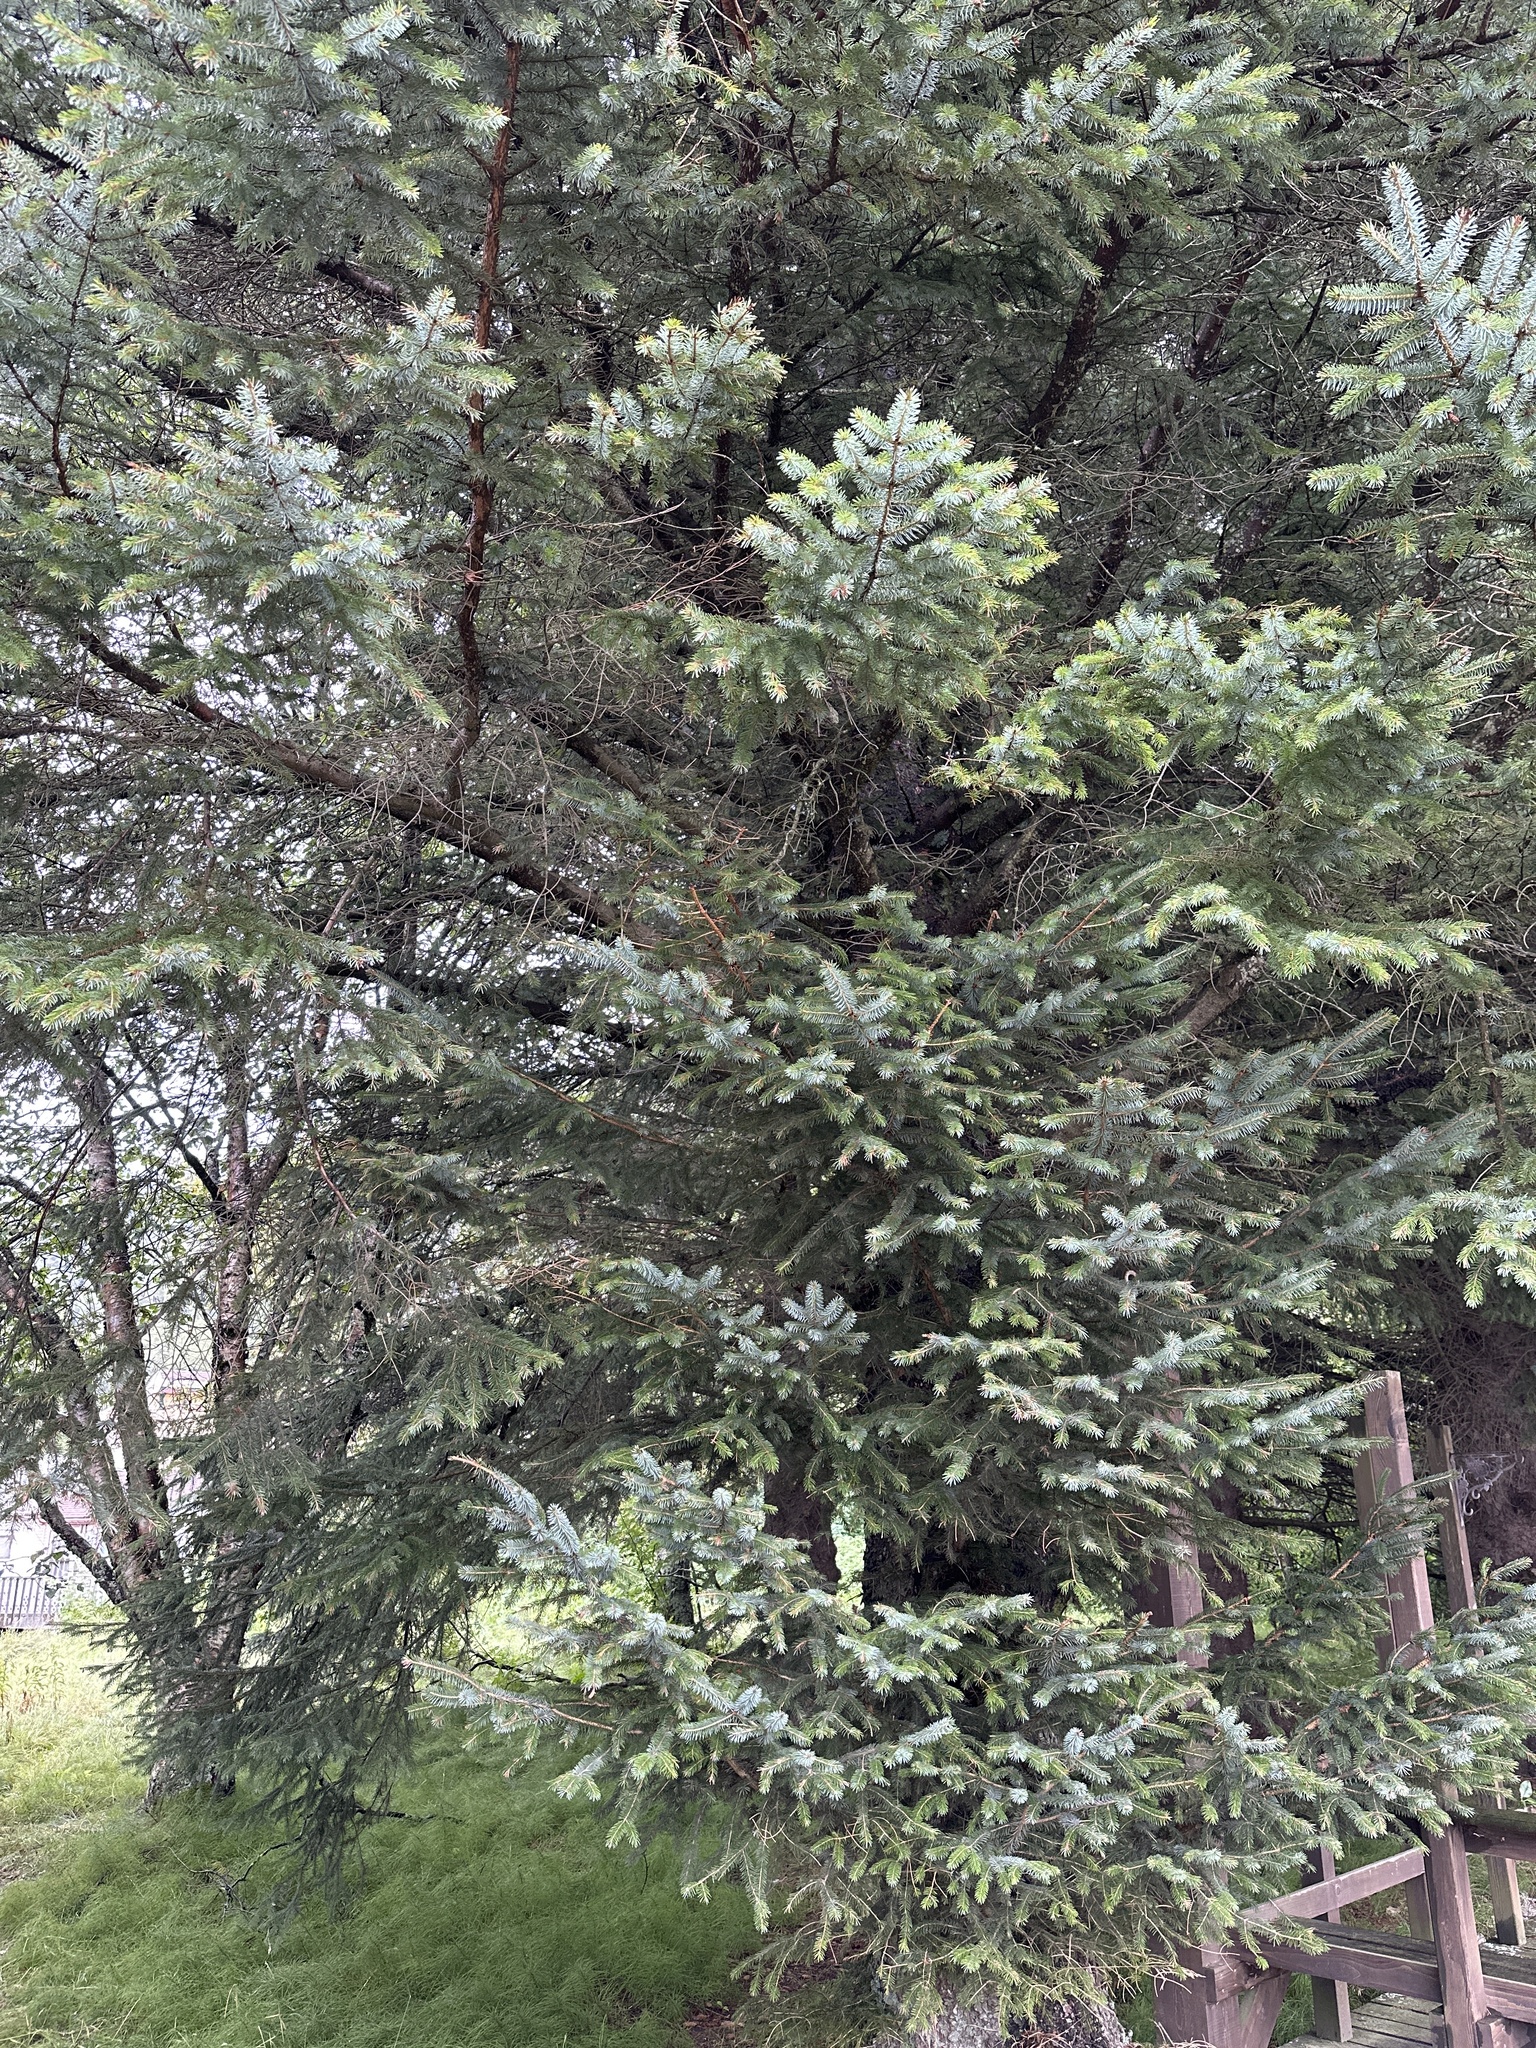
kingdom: Plantae
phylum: Tracheophyta
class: Pinopsida
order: Pinales
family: Pinaceae
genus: Picea
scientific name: Picea sitchensis
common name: Sitka spruce
